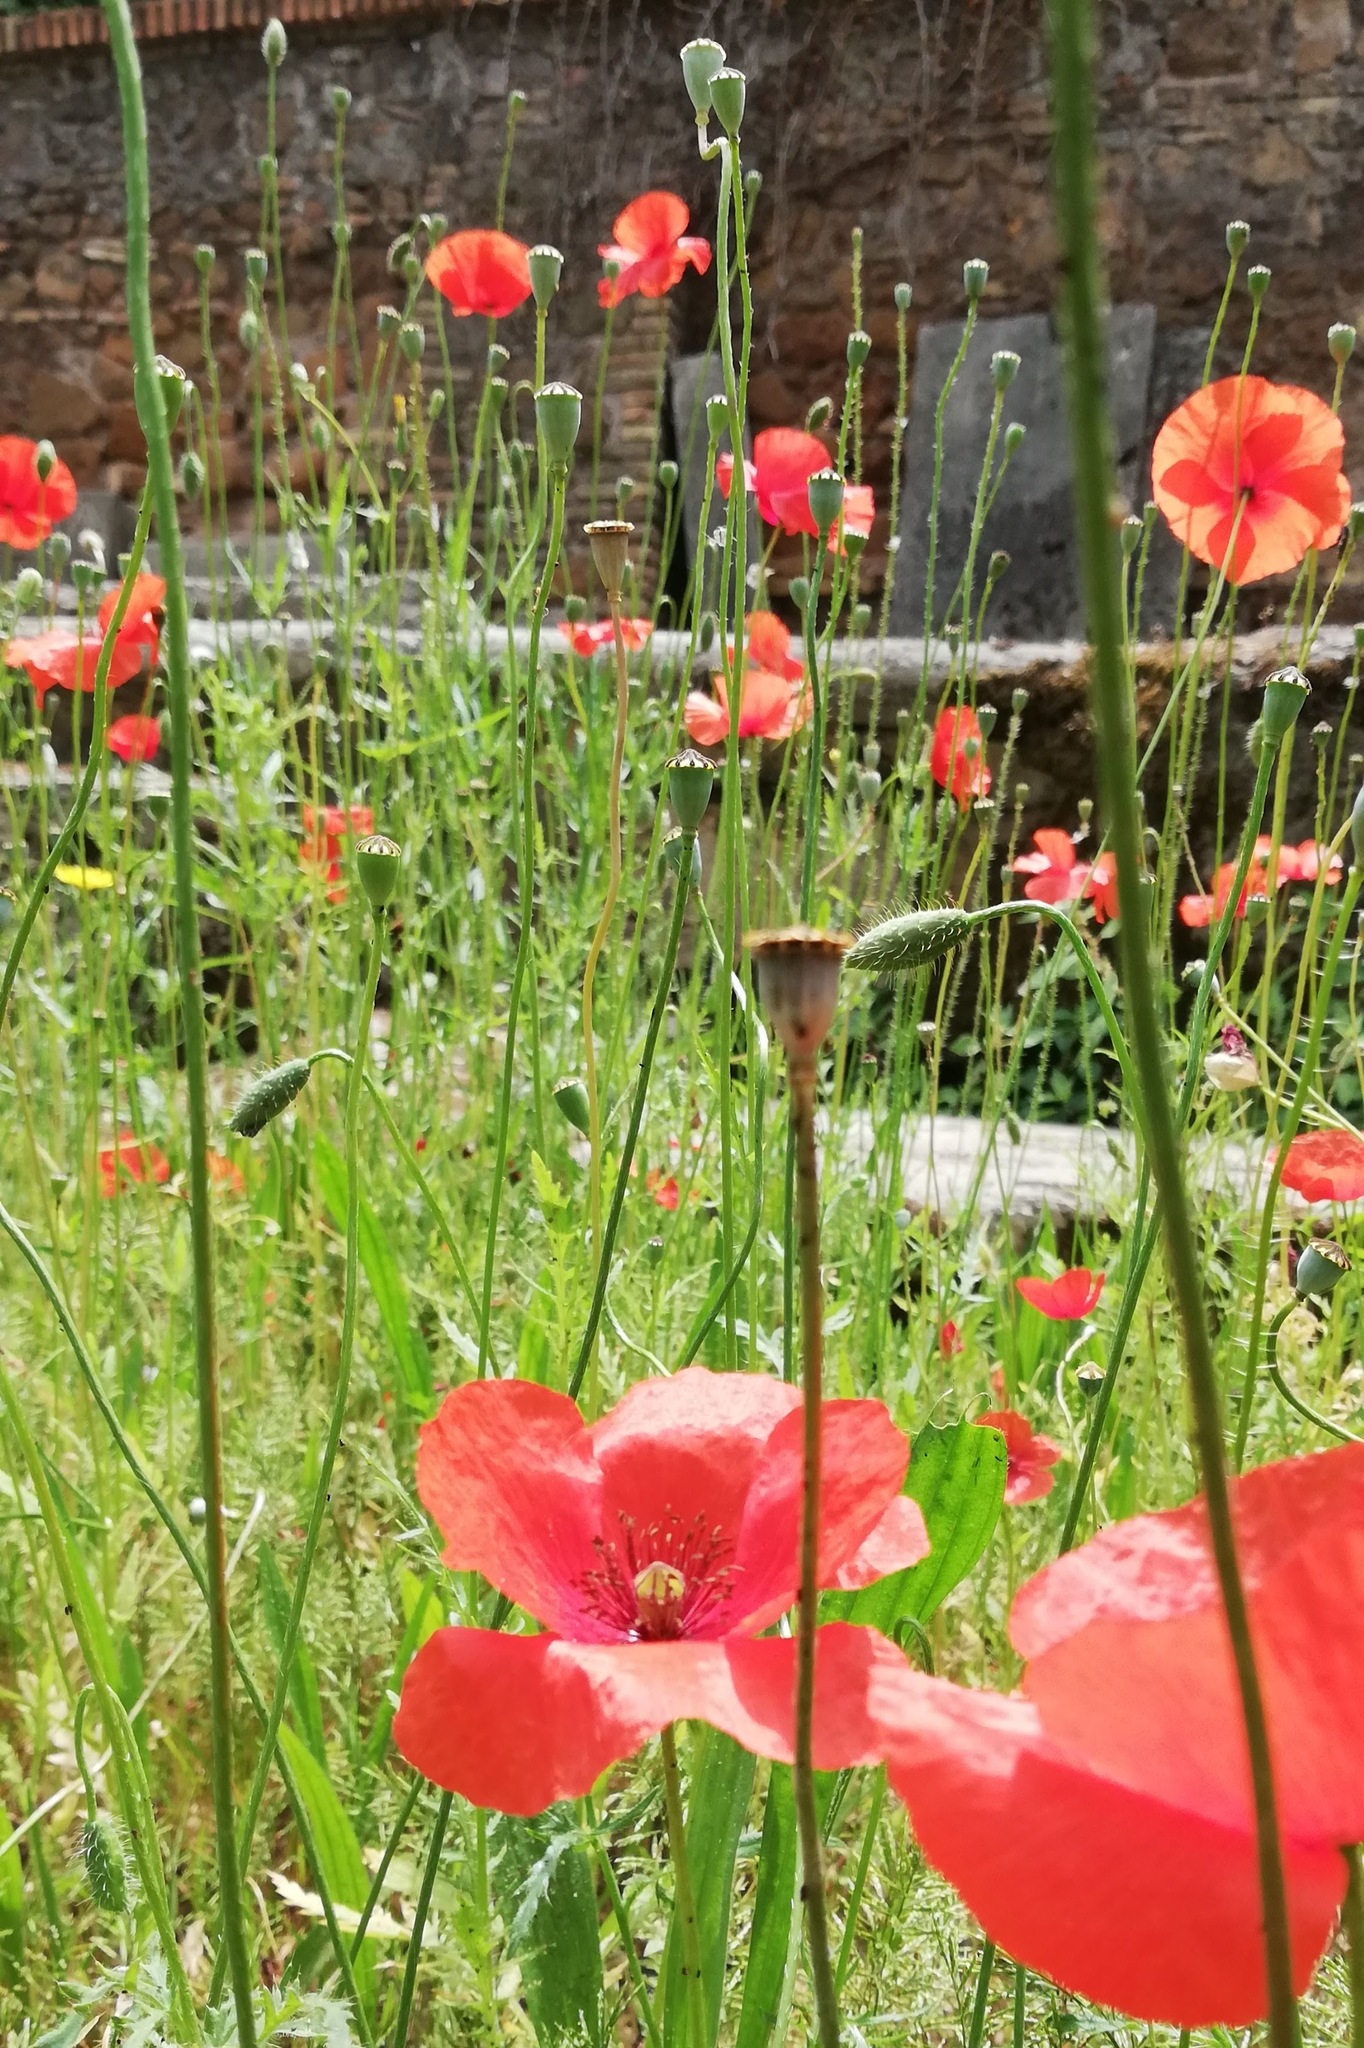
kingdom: Plantae
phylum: Tracheophyta
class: Magnoliopsida
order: Ranunculales
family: Papaveraceae
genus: Papaver
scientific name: Papaver rhoeas
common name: Corn poppy
